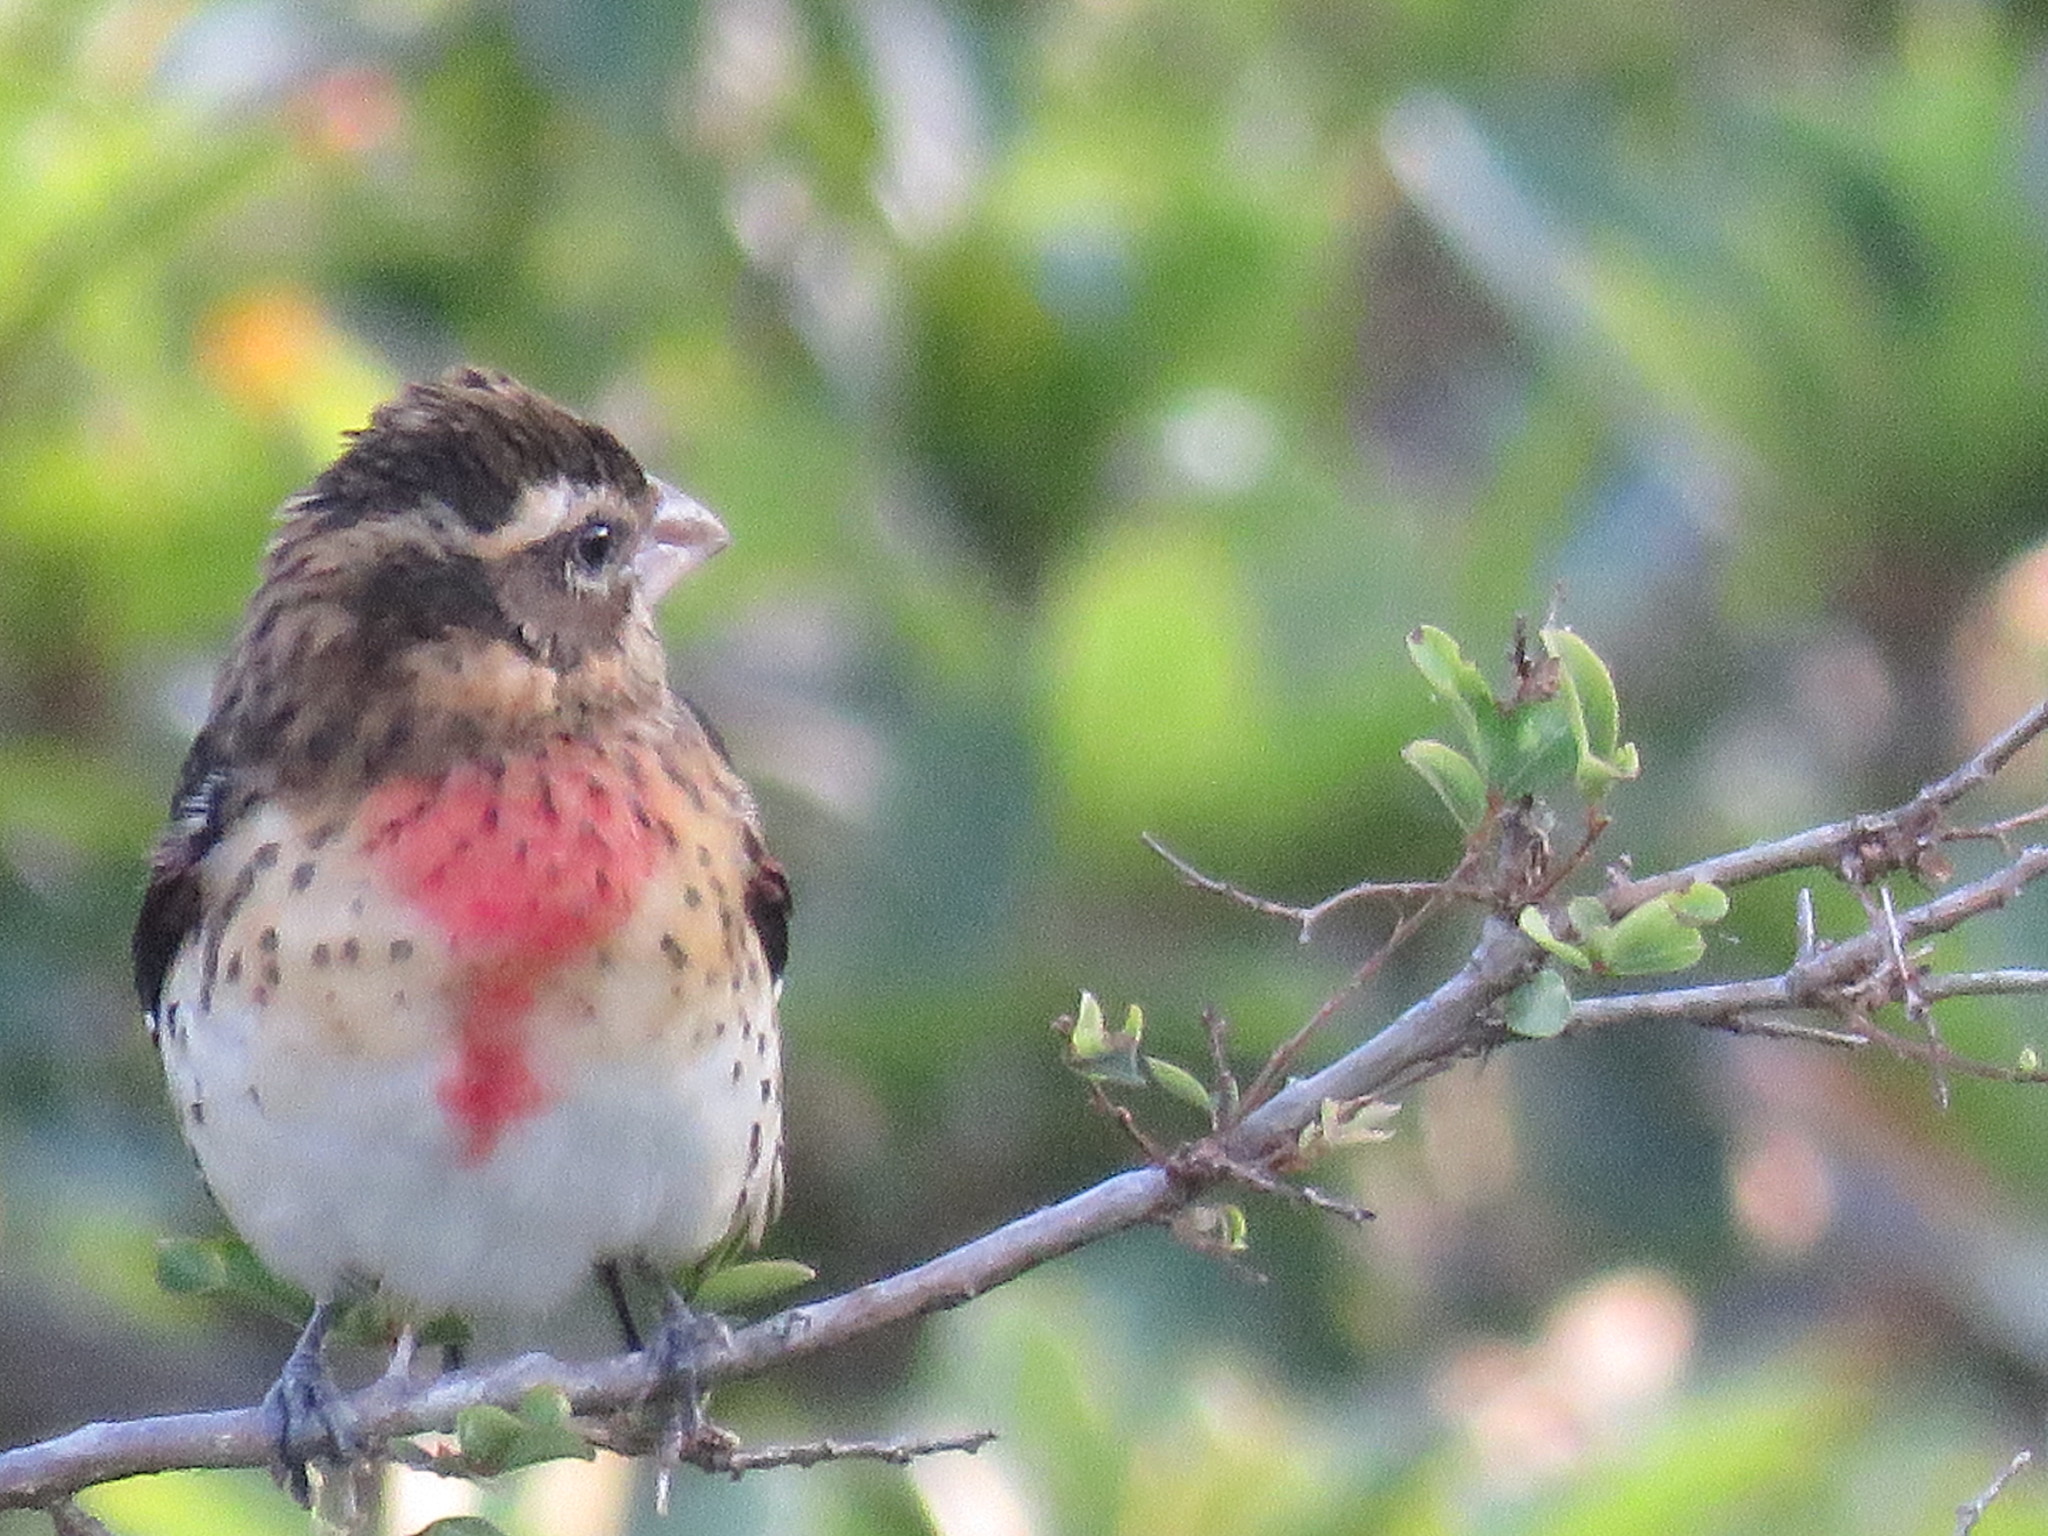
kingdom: Animalia
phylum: Chordata
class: Aves
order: Passeriformes
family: Cardinalidae
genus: Pheucticus
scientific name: Pheucticus ludovicianus
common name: Rose-breasted grosbeak
